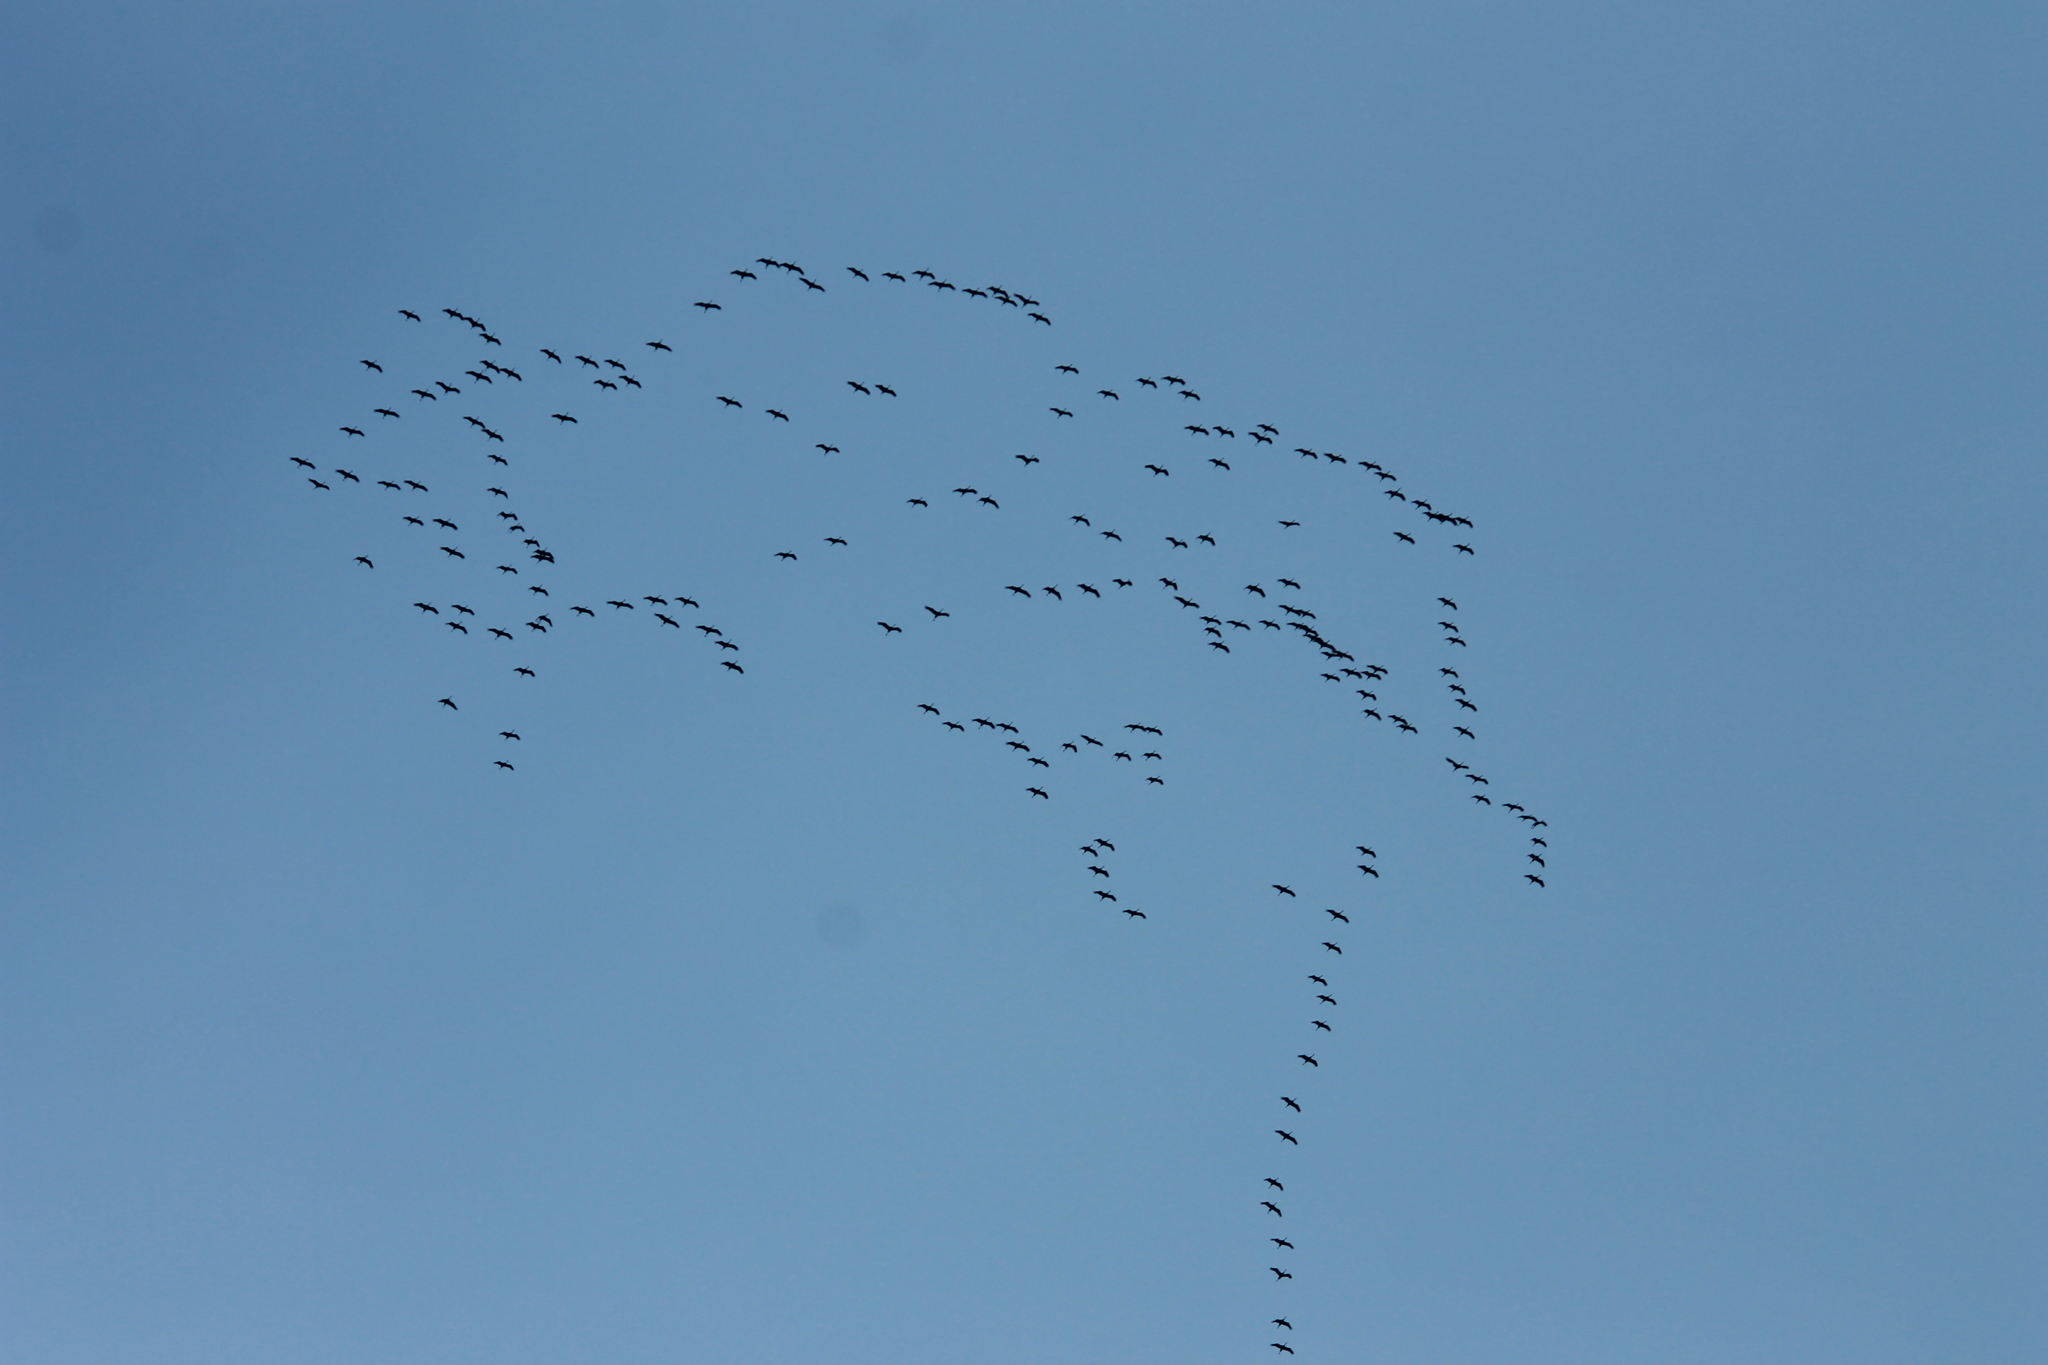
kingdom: Animalia
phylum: Chordata
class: Aves
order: Gruiformes
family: Gruidae
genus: Grus
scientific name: Grus grus
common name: Common crane
